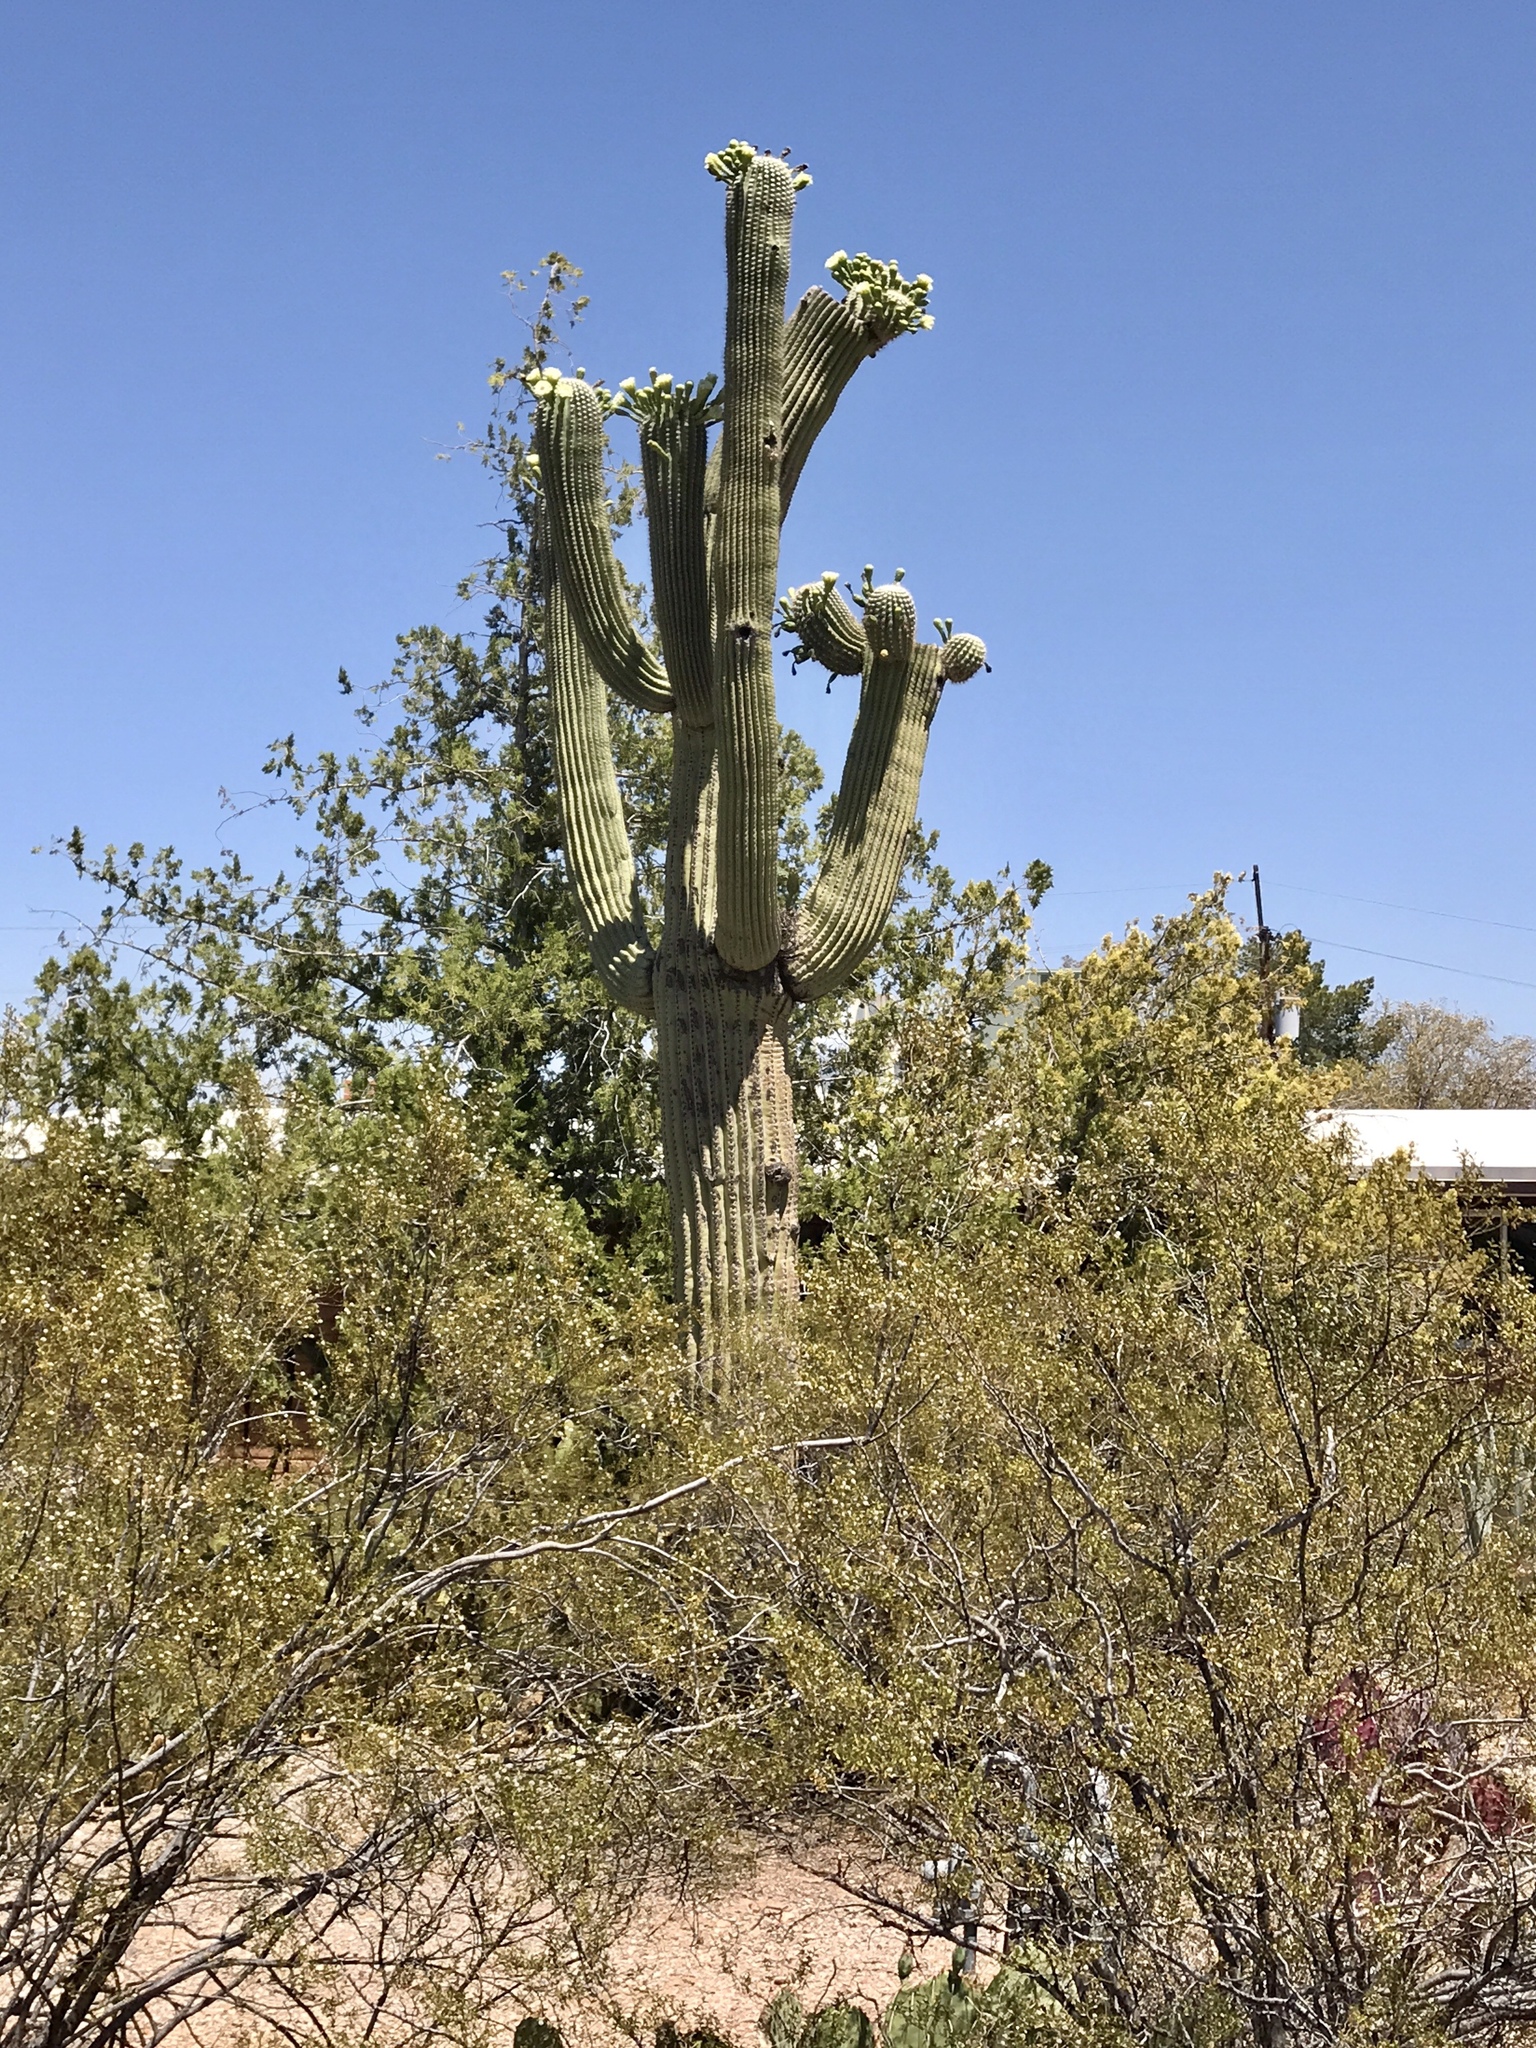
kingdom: Plantae
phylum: Tracheophyta
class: Magnoliopsida
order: Caryophyllales
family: Cactaceae
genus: Carnegiea
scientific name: Carnegiea gigantea
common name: Saguaro
